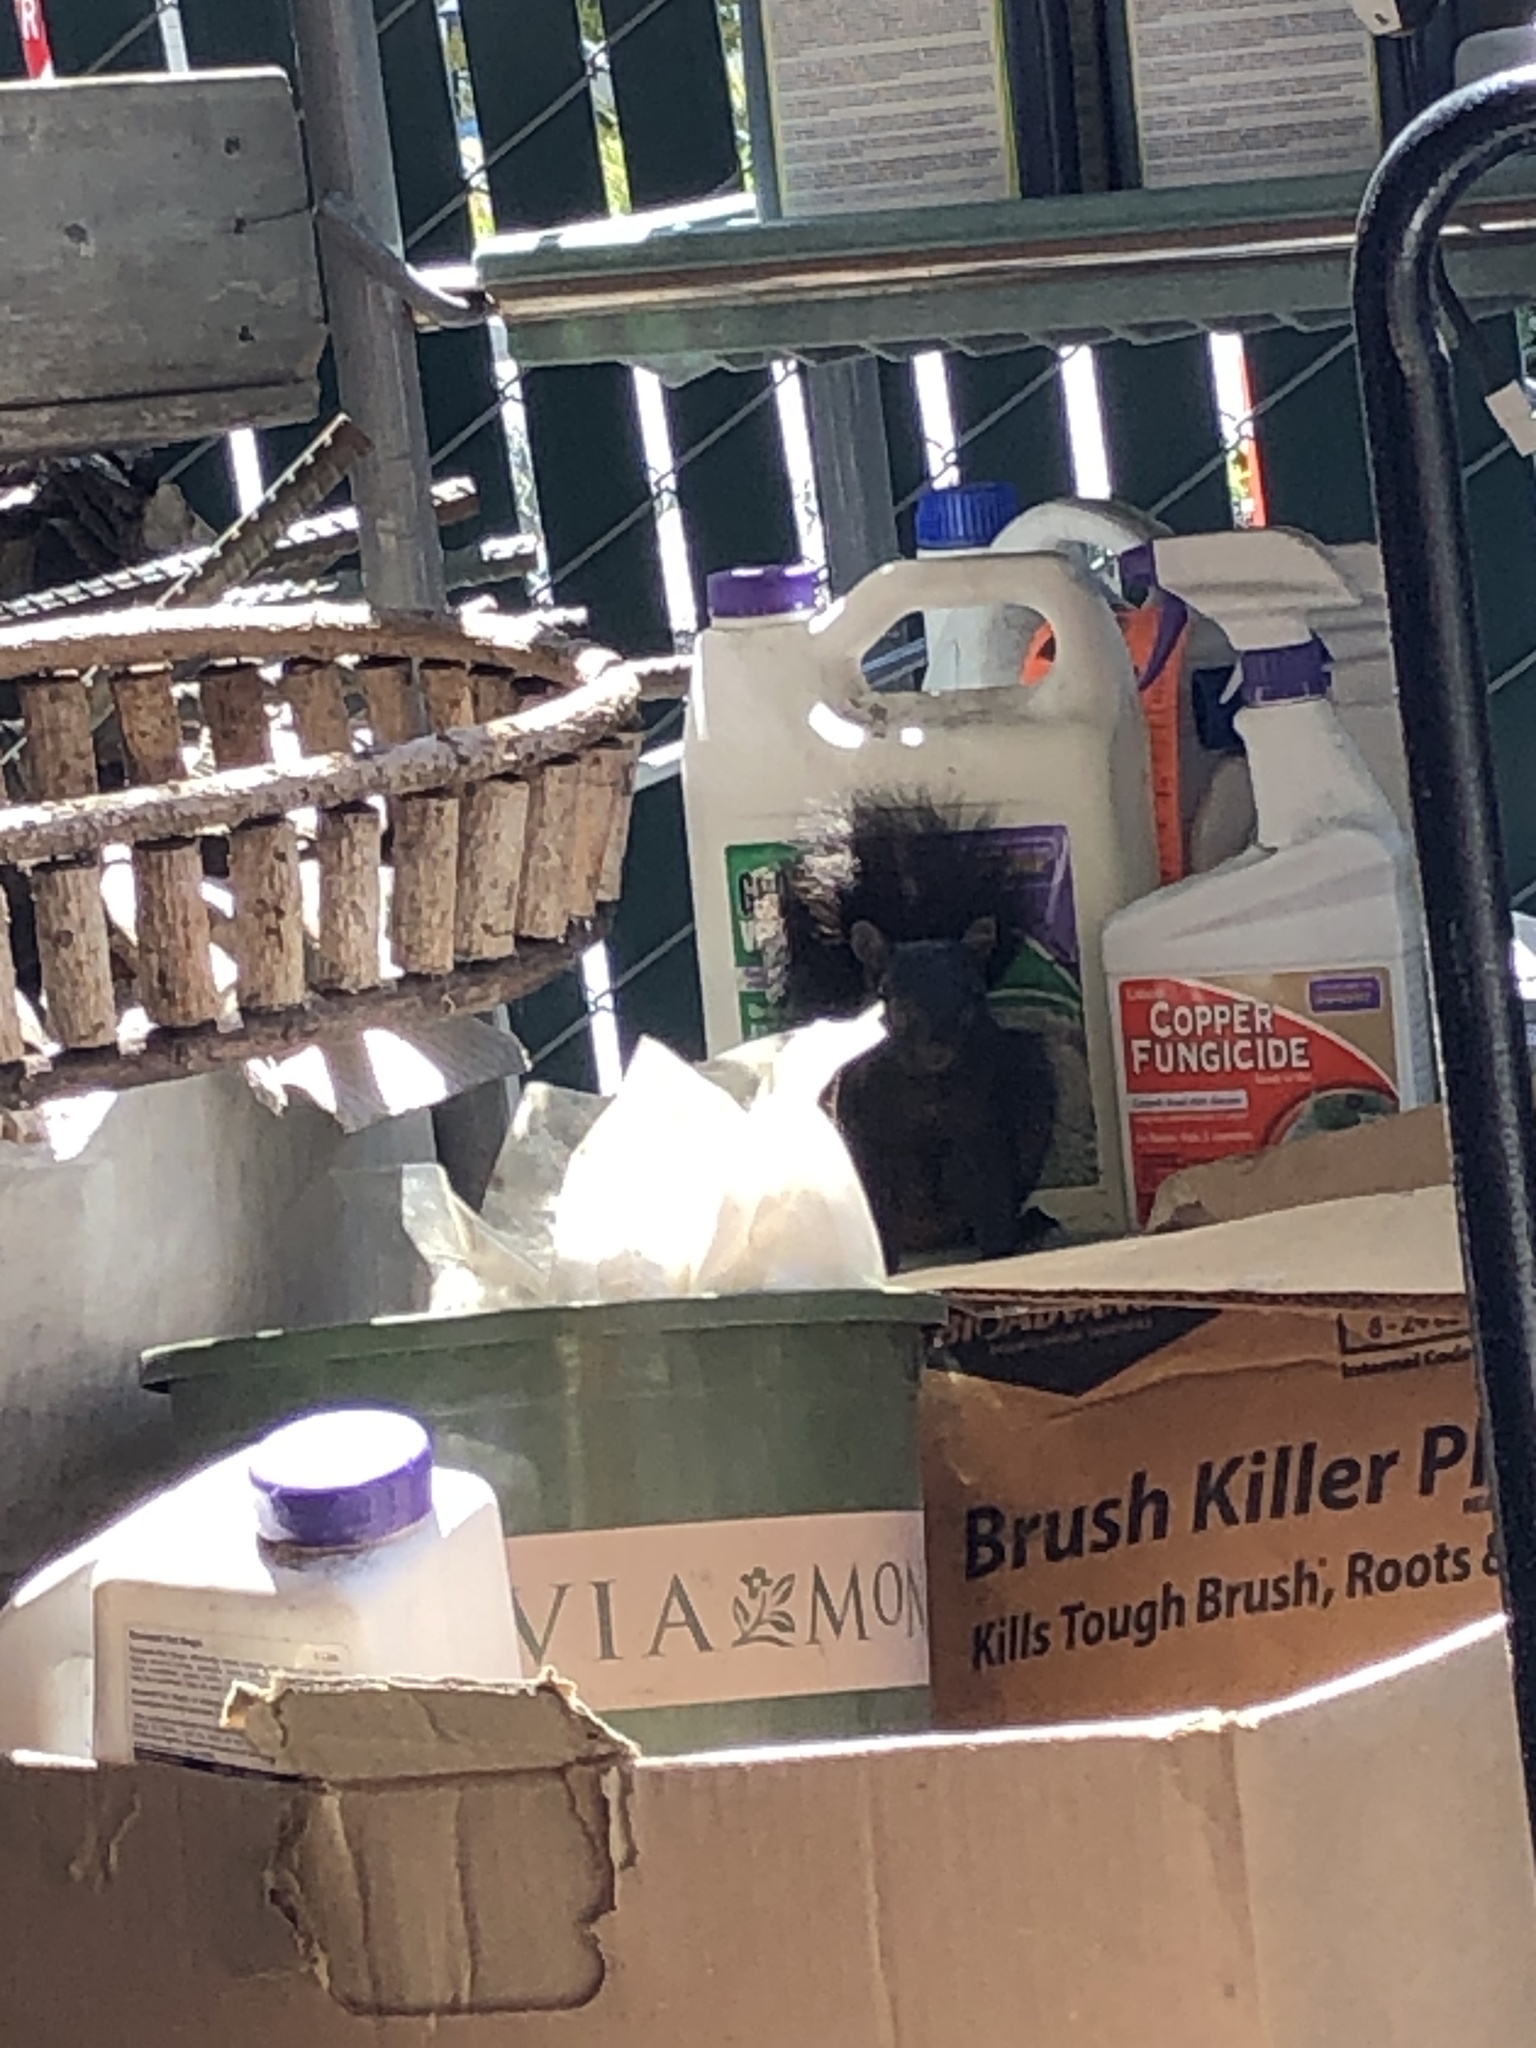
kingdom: Animalia
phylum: Chordata
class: Mammalia
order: Rodentia
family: Sciuridae
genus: Sciurus
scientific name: Sciurus carolinensis
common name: Eastern gray squirrel
